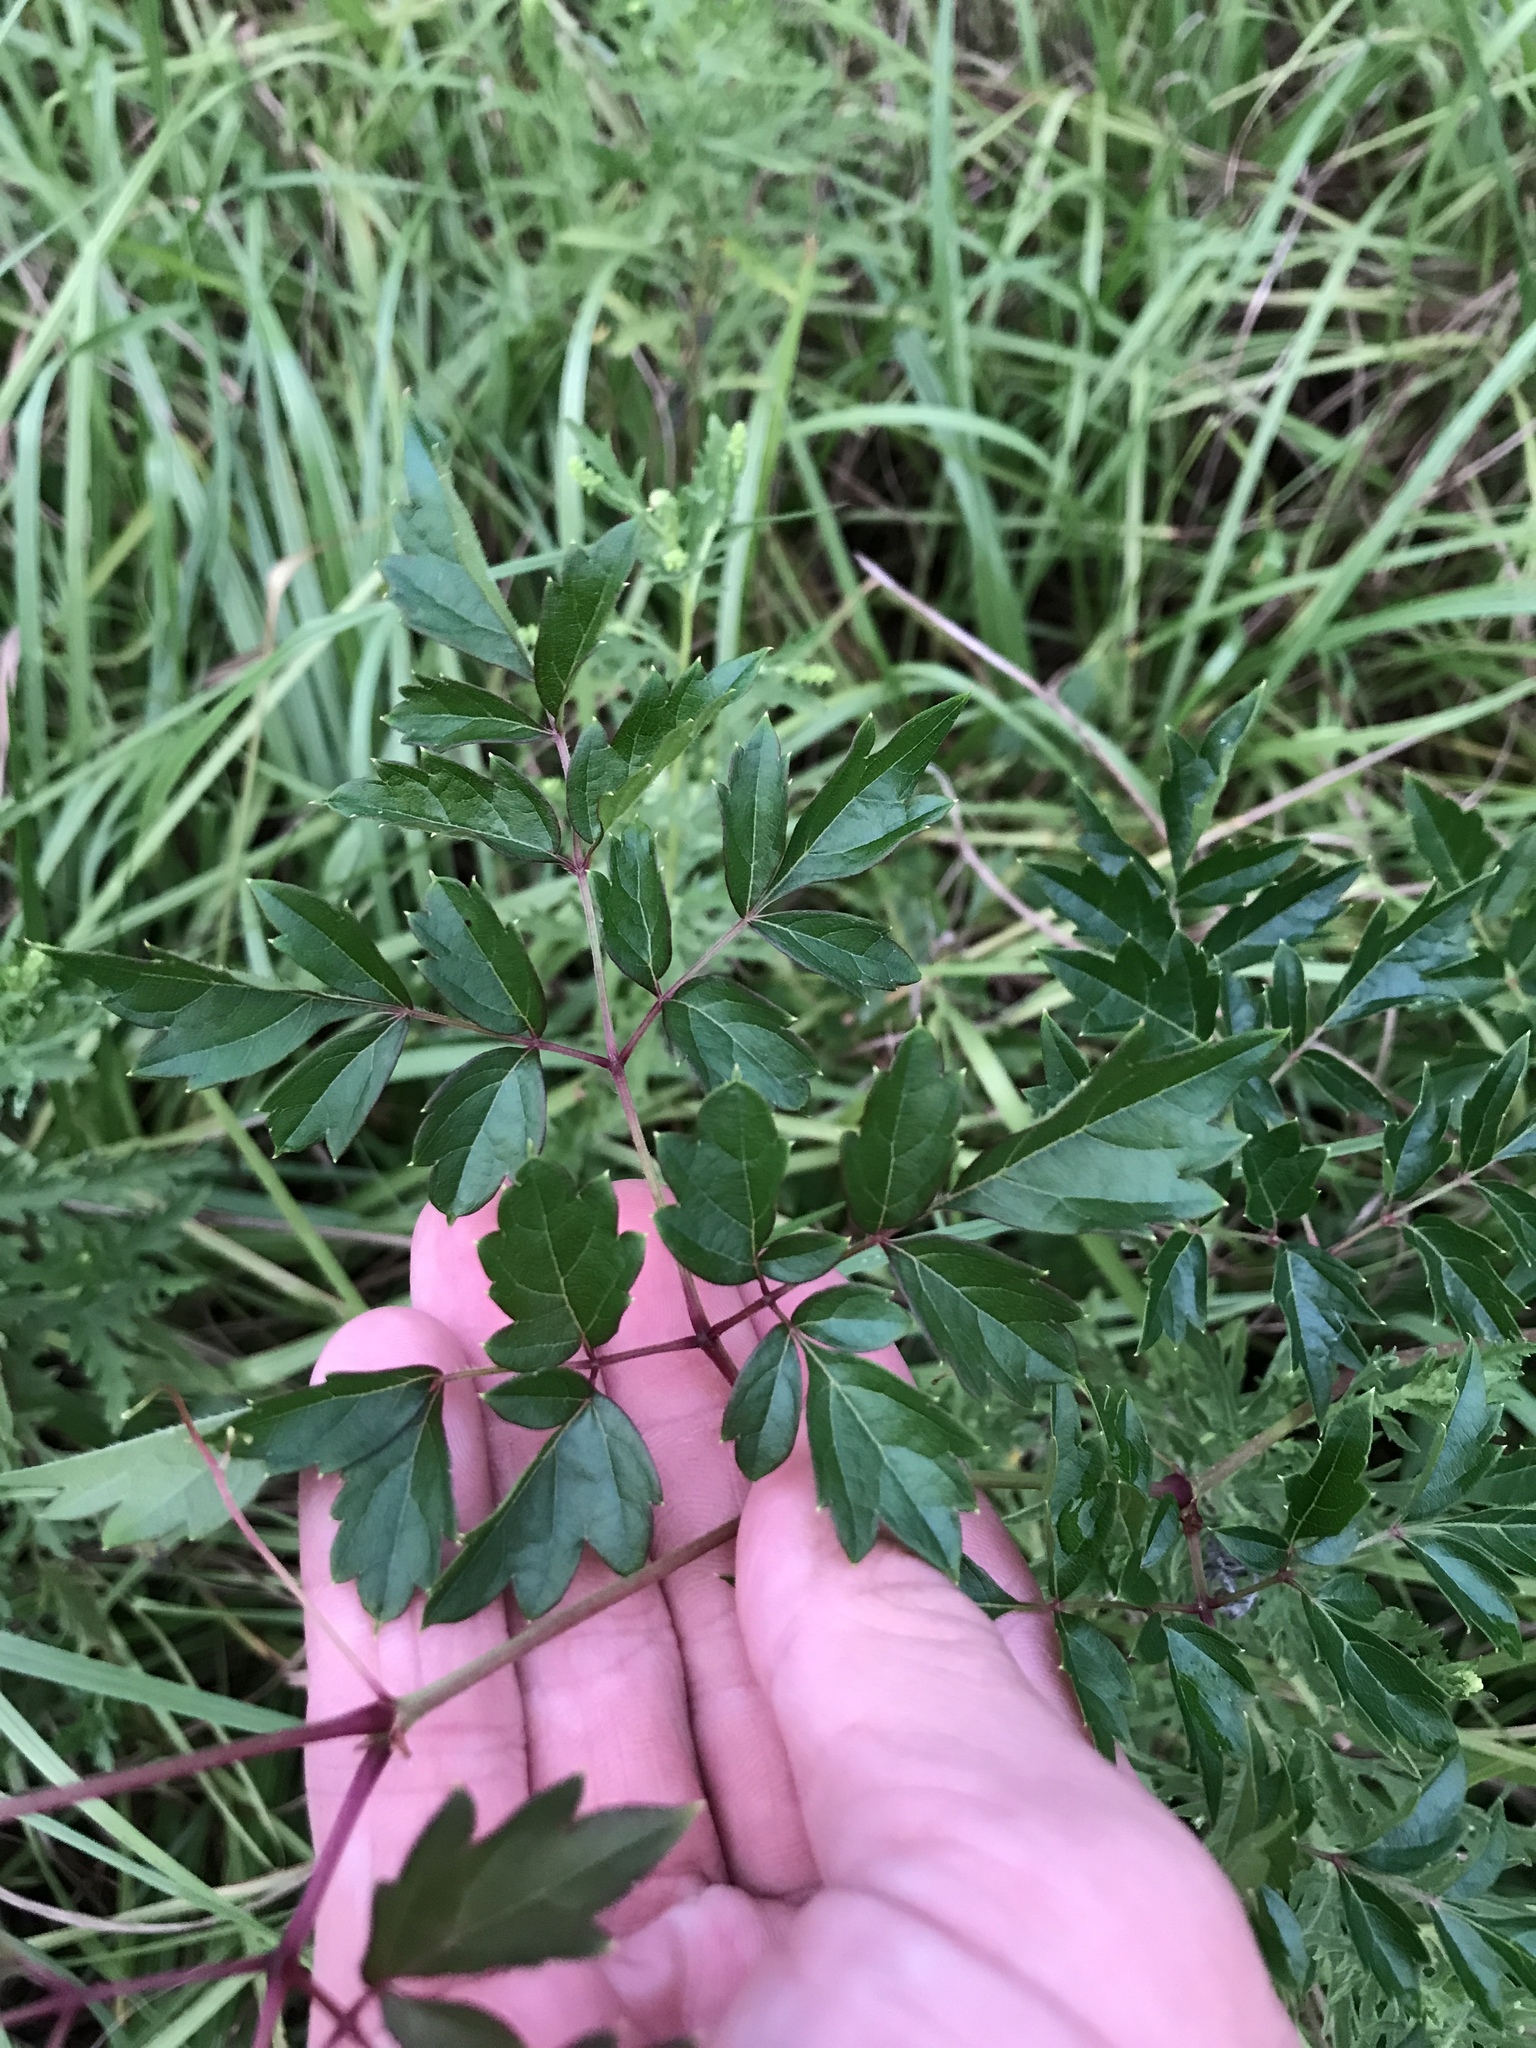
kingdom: Plantae
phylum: Tracheophyta
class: Magnoliopsida
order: Vitales
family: Vitaceae
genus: Nekemias
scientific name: Nekemias arborea
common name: Peppervine
